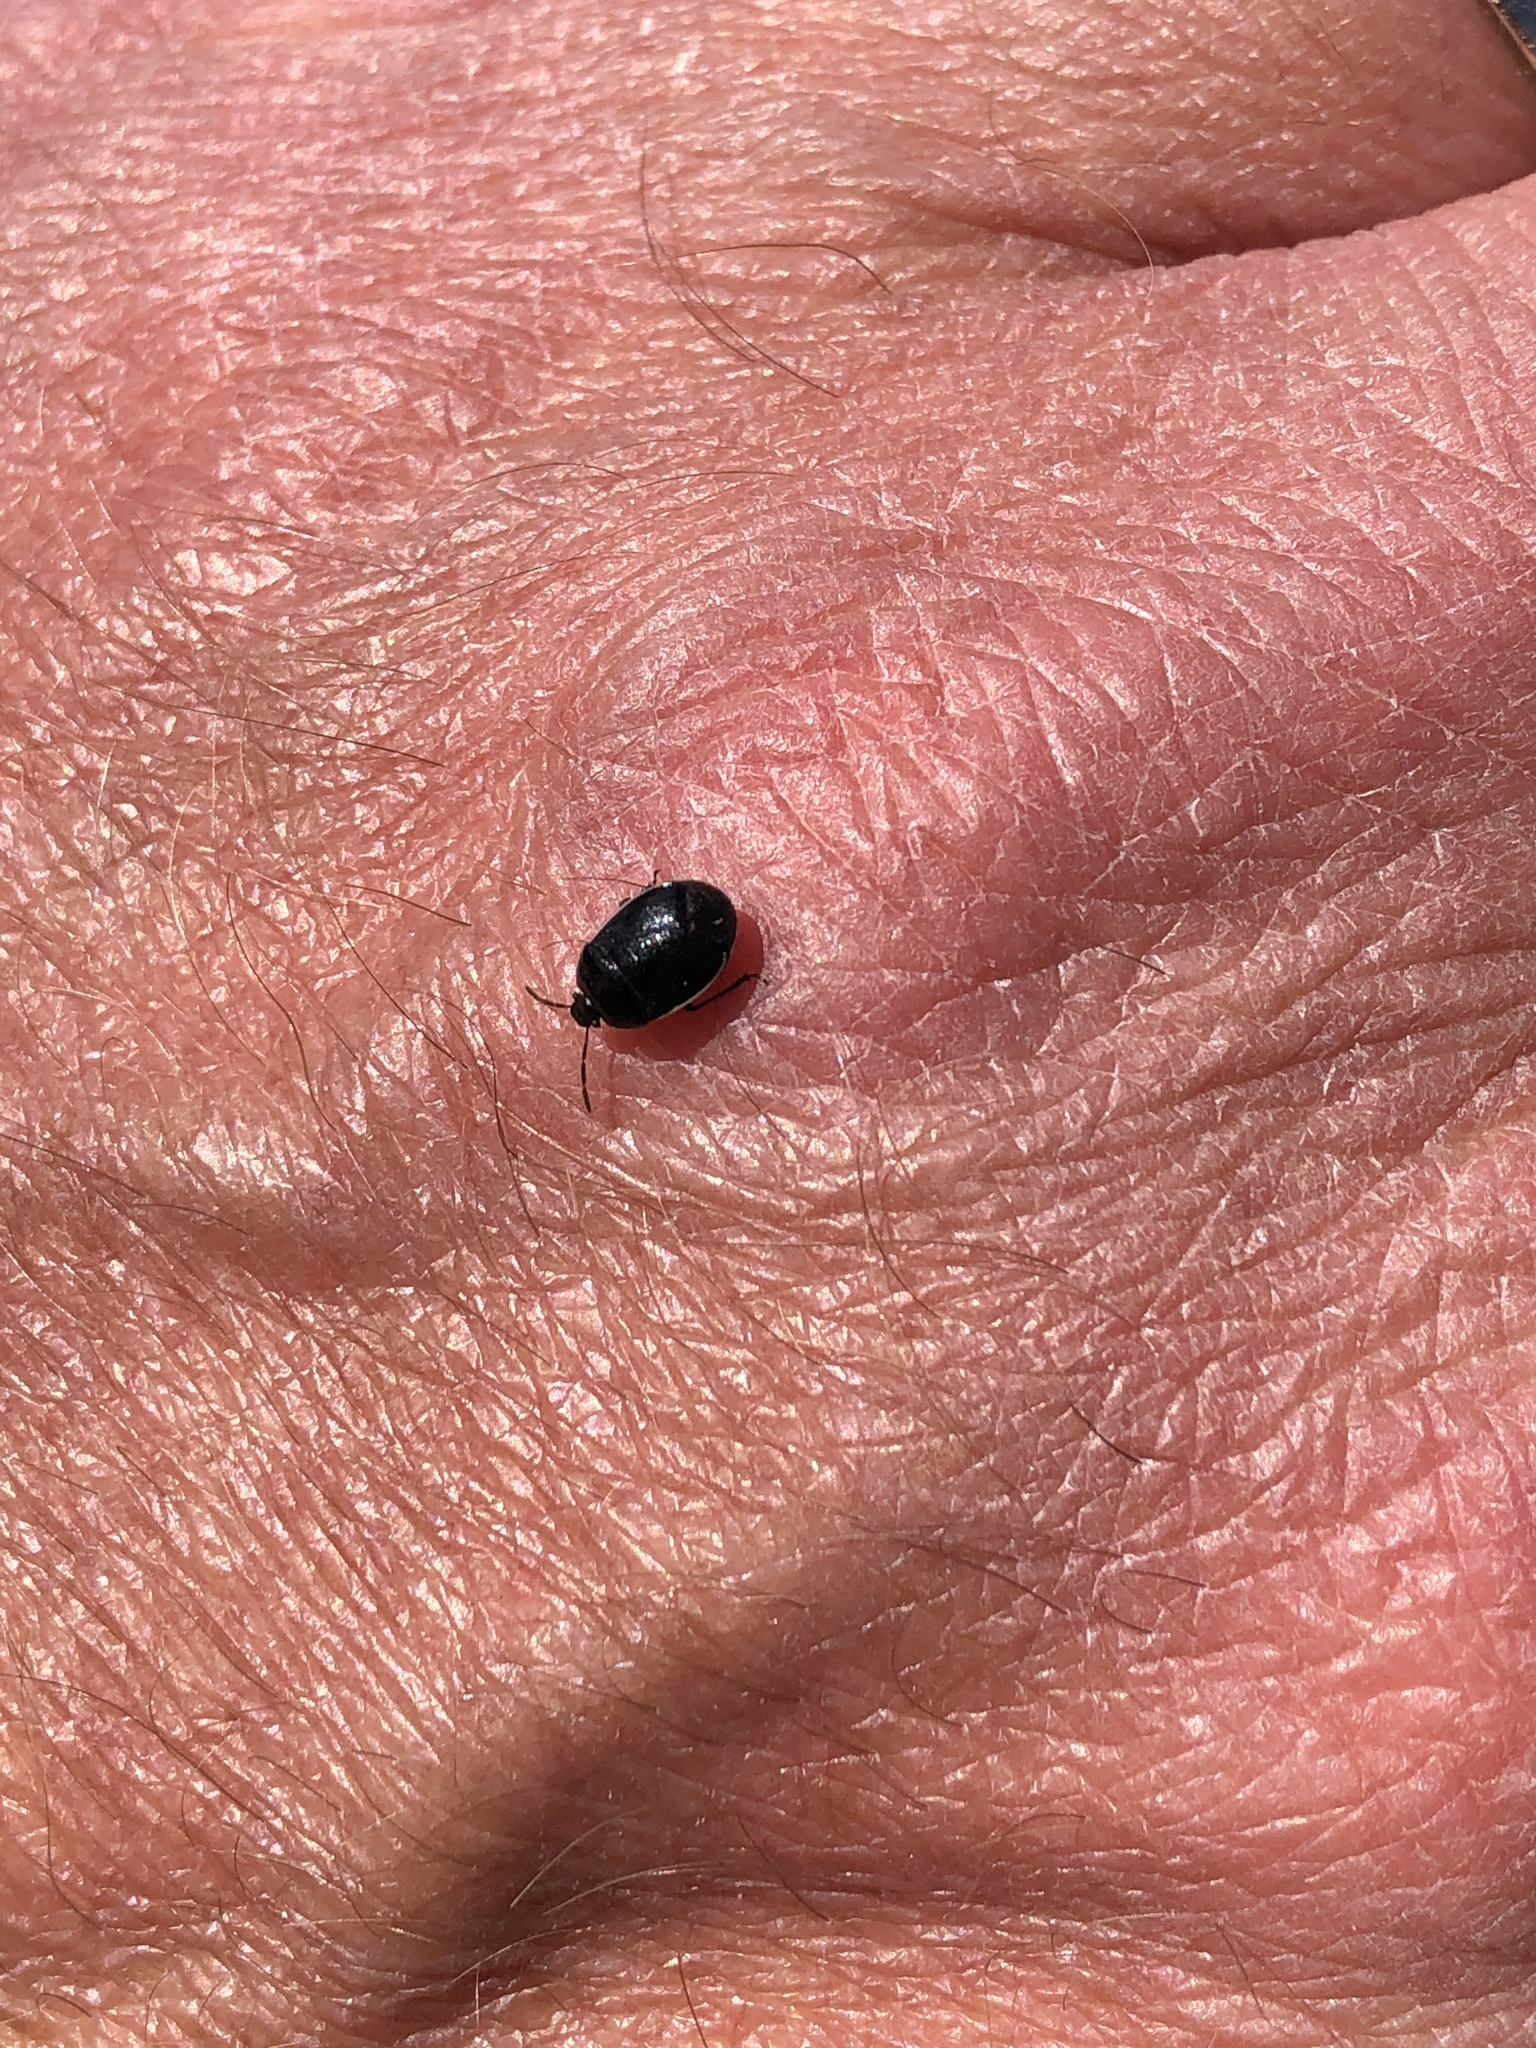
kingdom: Animalia
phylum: Arthropoda
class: Insecta
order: Hemiptera
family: Cydnidae
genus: Sehirus
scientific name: Sehirus cinctus
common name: White-margined burrower bug
